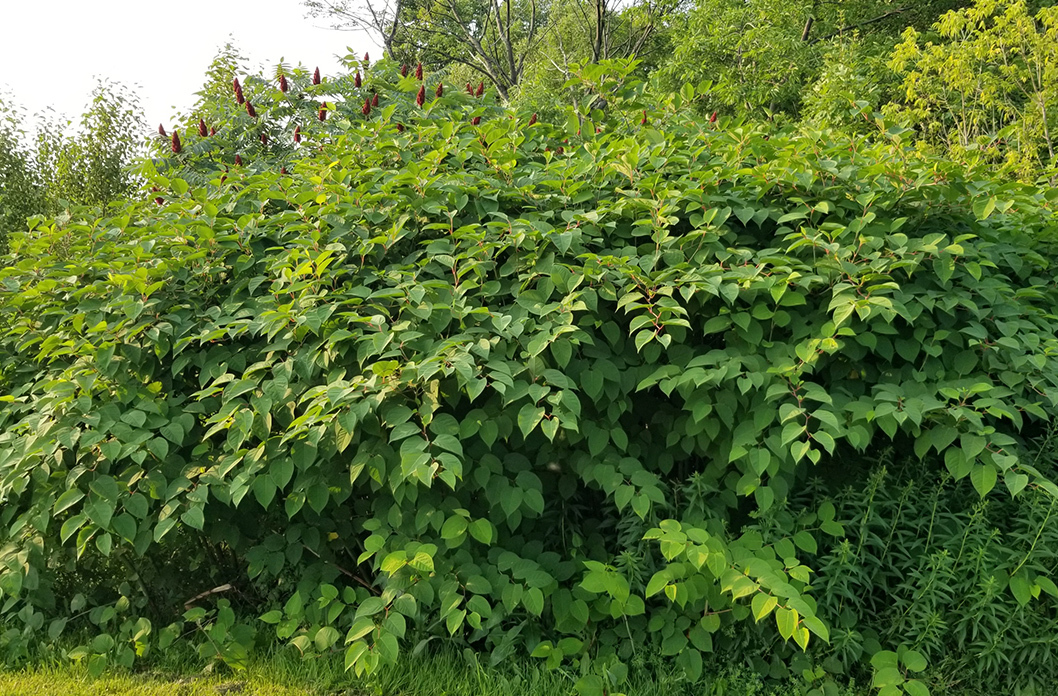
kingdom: Plantae
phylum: Tracheophyta
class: Magnoliopsida
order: Caryophyllales
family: Polygonaceae
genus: Reynoutria
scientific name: Reynoutria japonica
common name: Japanese knotweed
